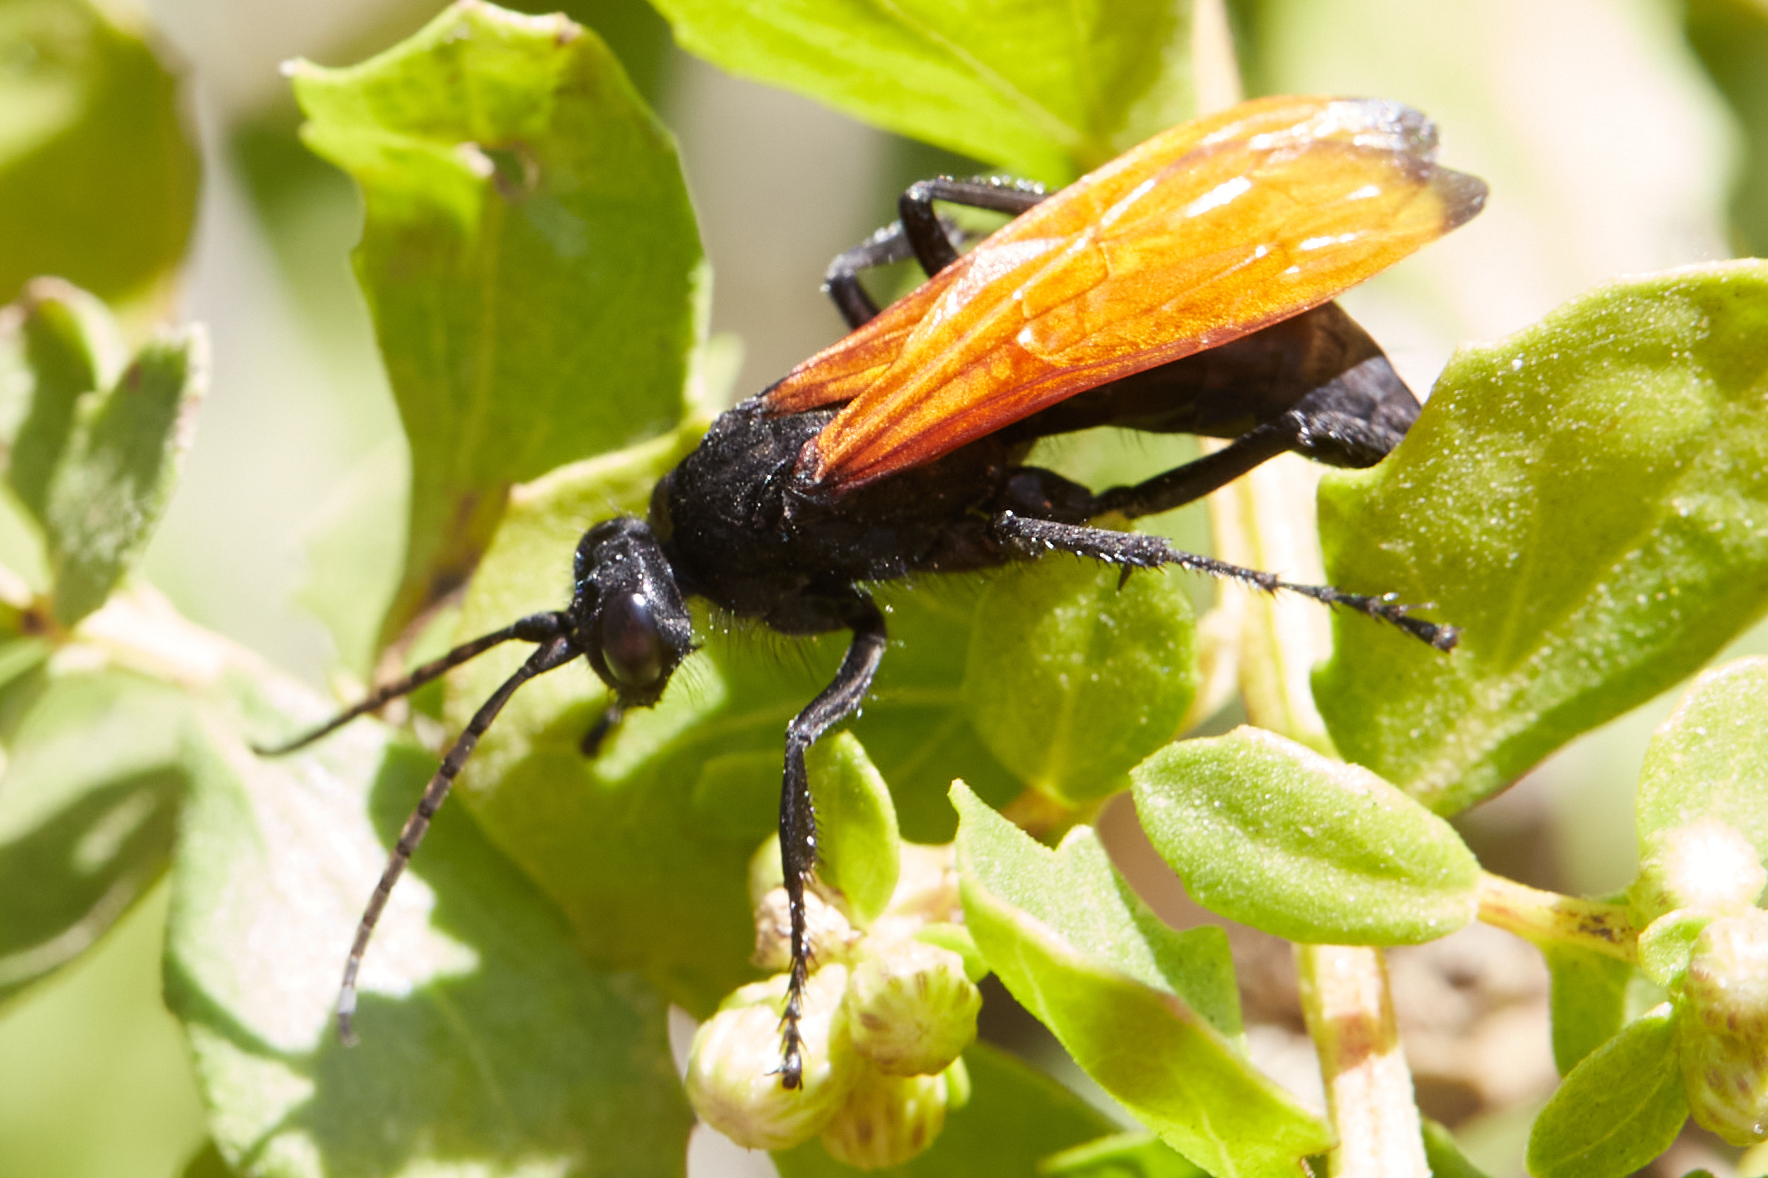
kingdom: Animalia
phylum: Arthropoda
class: Insecta
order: Hymenoptera
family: Pompilidae
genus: Hemipepsis
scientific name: Hemipepsis ustulata
